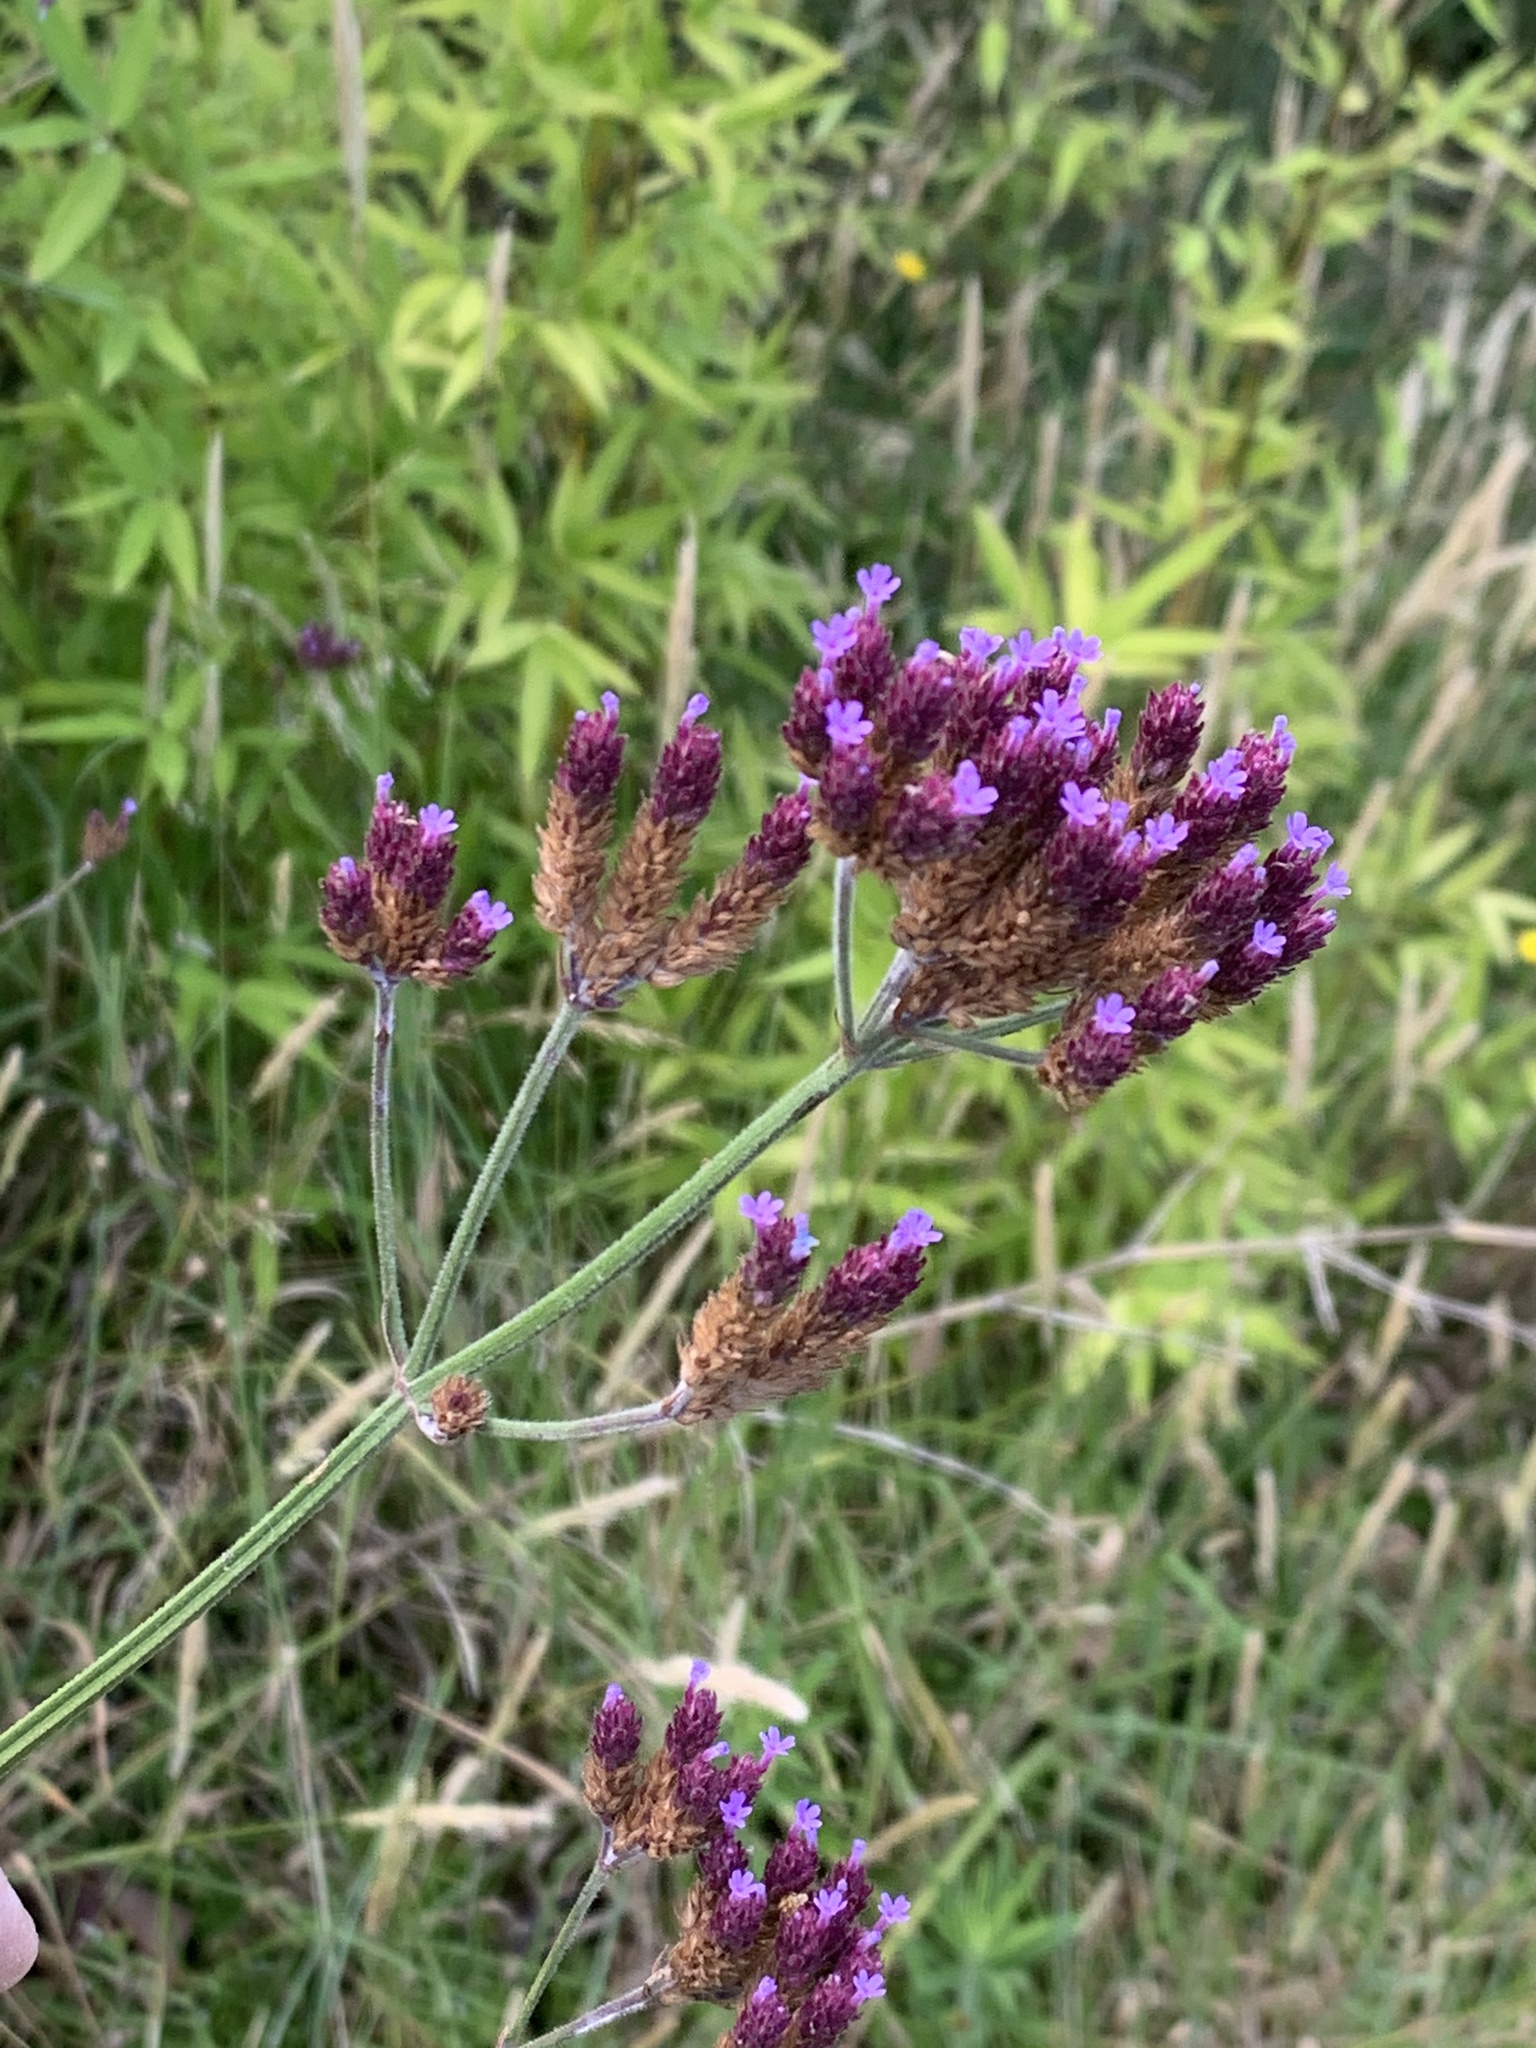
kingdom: Plantae
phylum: Tracheophyta
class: Magnoliopsida
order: Lamiales
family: Verbenaceae
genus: Verbena
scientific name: Verbena bonariensis
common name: Purpletop vervain
